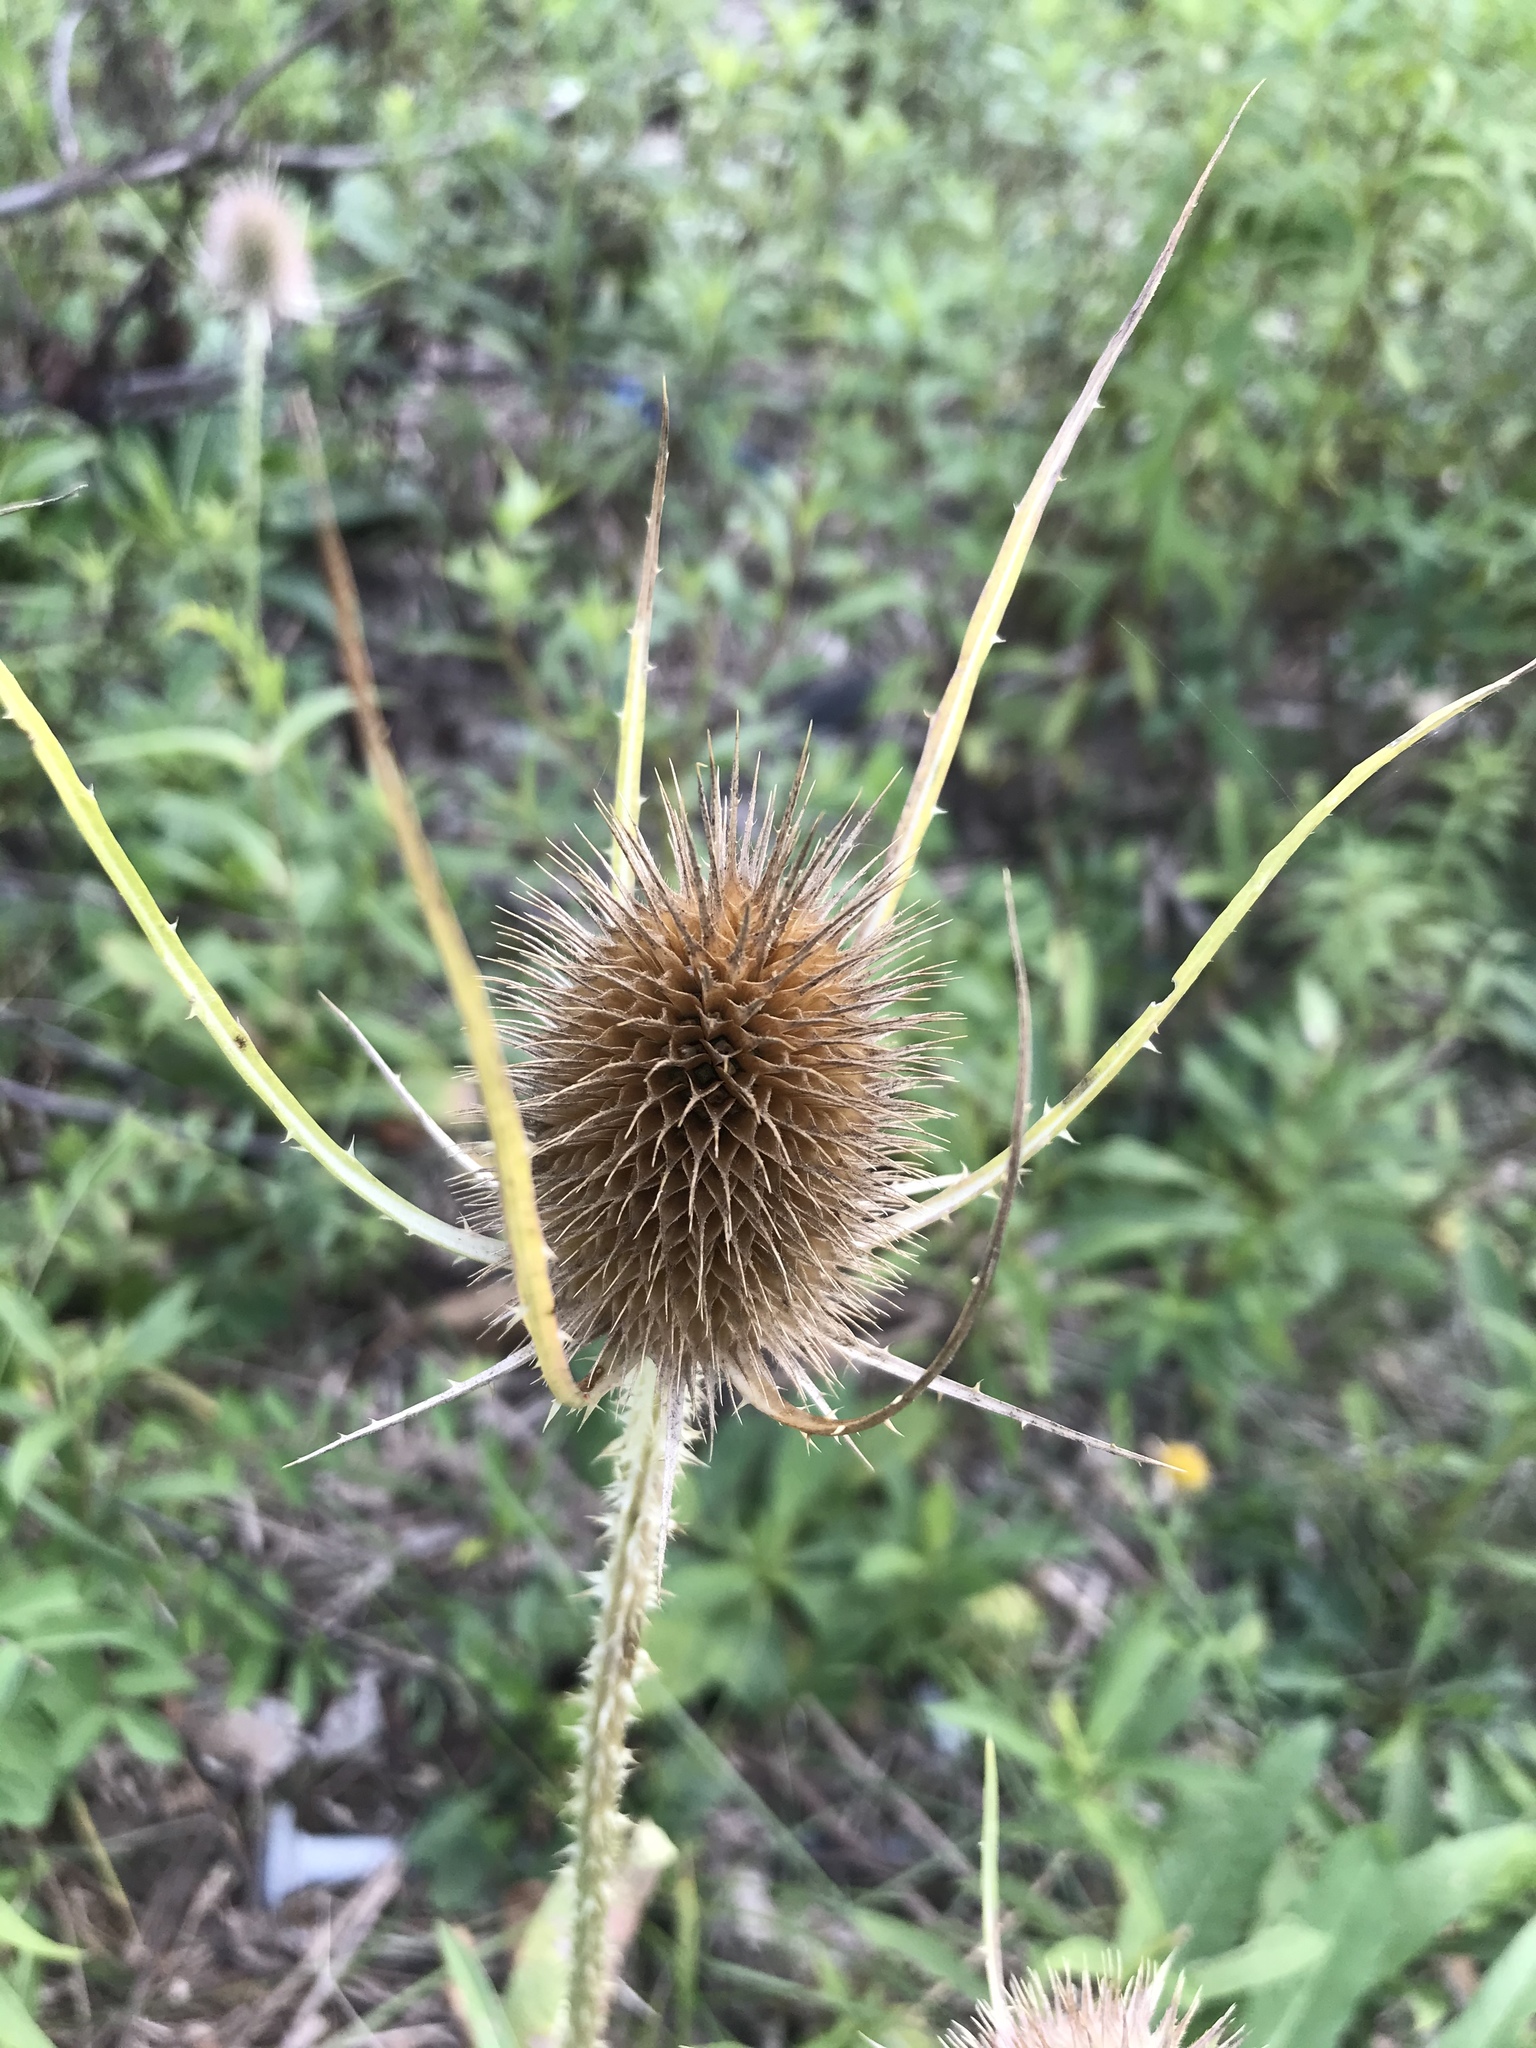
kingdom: Plantae
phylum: Tracheophyta
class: Magnoliopsida
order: Dipsacales
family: Caprifoliaceae
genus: Dipsacus
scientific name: Dipsacus fullonum
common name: Teasel
